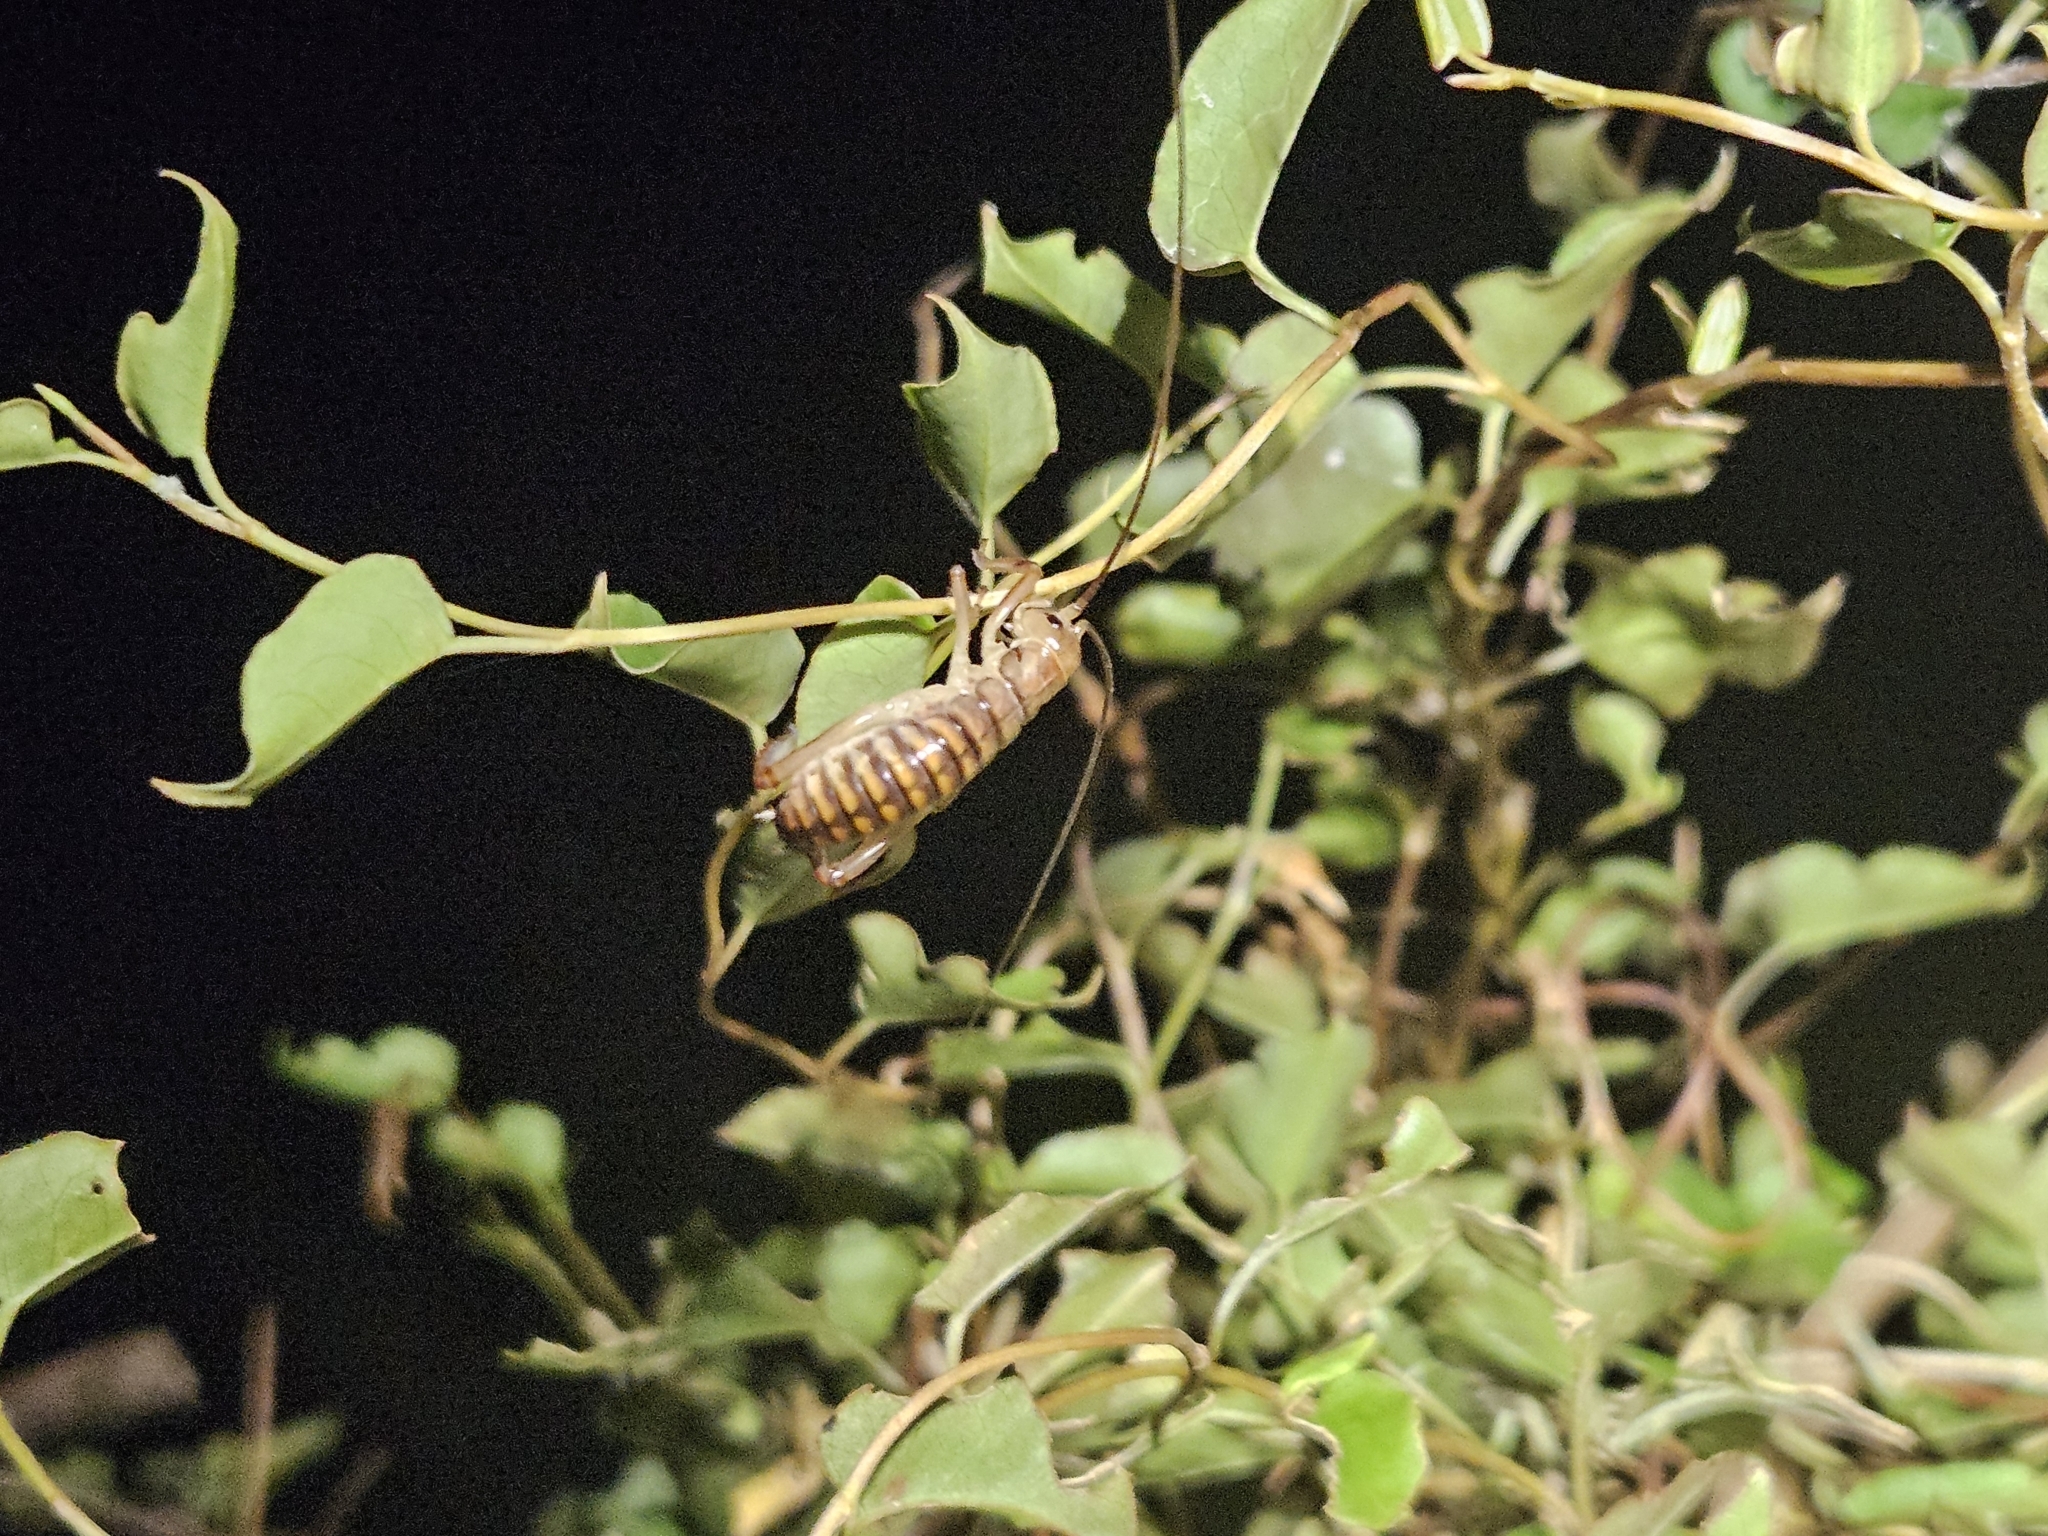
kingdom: Animalia
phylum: Arthropoda
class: Insecta
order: Orthoptera
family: Anostostomatidae
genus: Hemideina
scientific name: Hemideina crassidens
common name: Wellington tree weta
